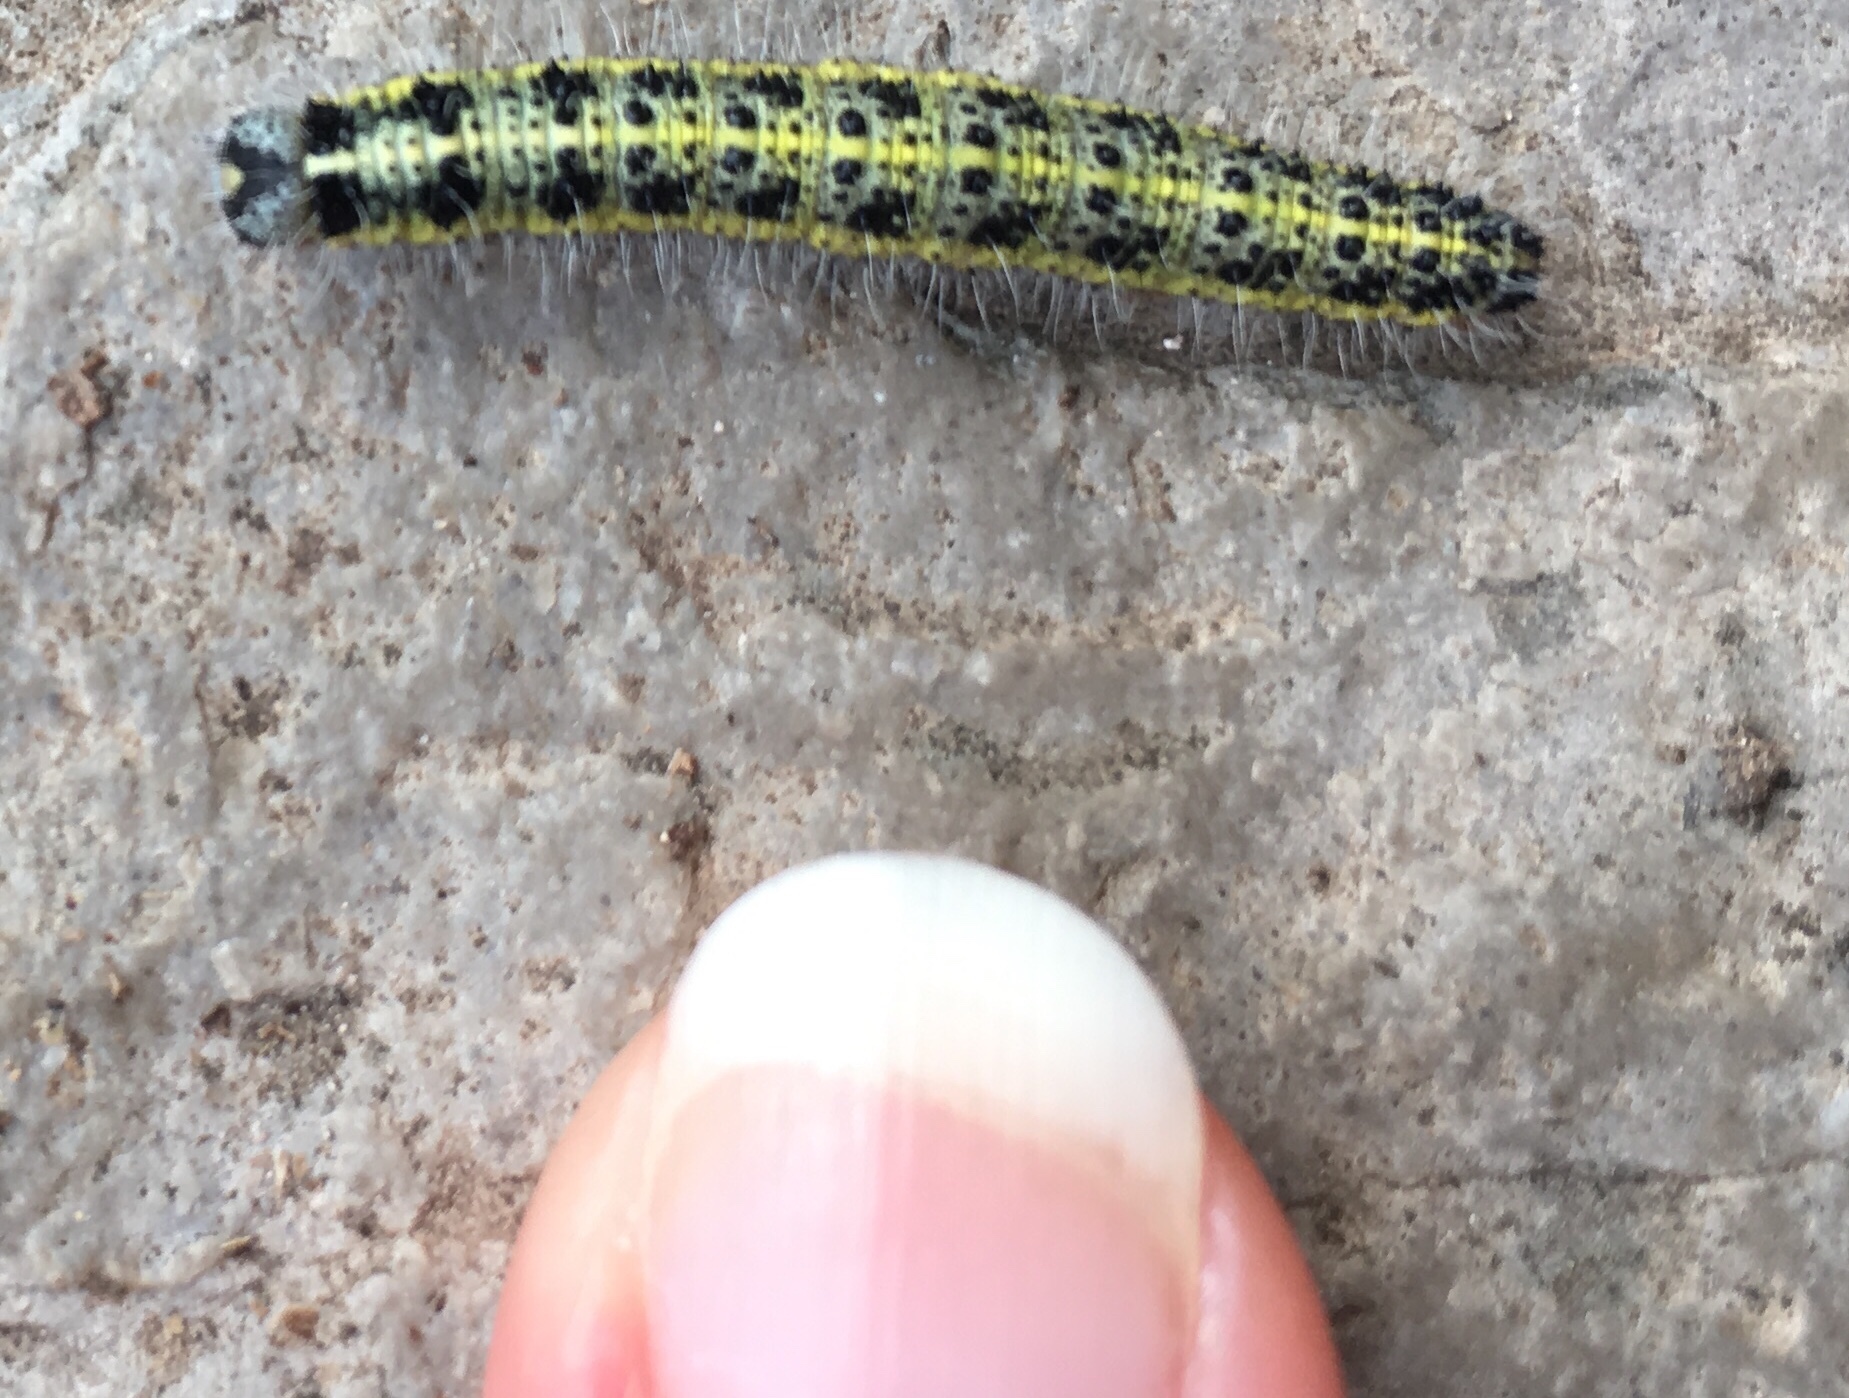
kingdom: Animalia
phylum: Arthropoda
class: Insecta
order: Lepidoptera
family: Pieridae
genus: Pieris
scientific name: Pieris brassicae
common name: Large white
